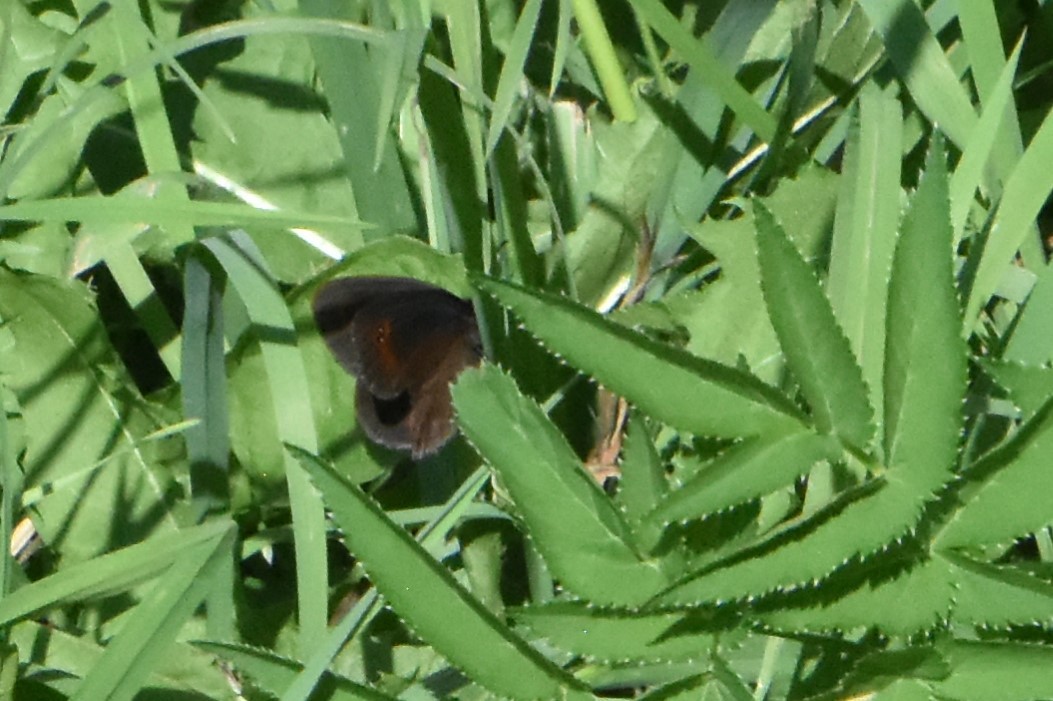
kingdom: Animalia
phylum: Arthropoda
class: Insecta
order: Lepidoptera
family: Nymphalidae
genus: Erebia
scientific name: Erebia aethiops
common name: Scotch argus
